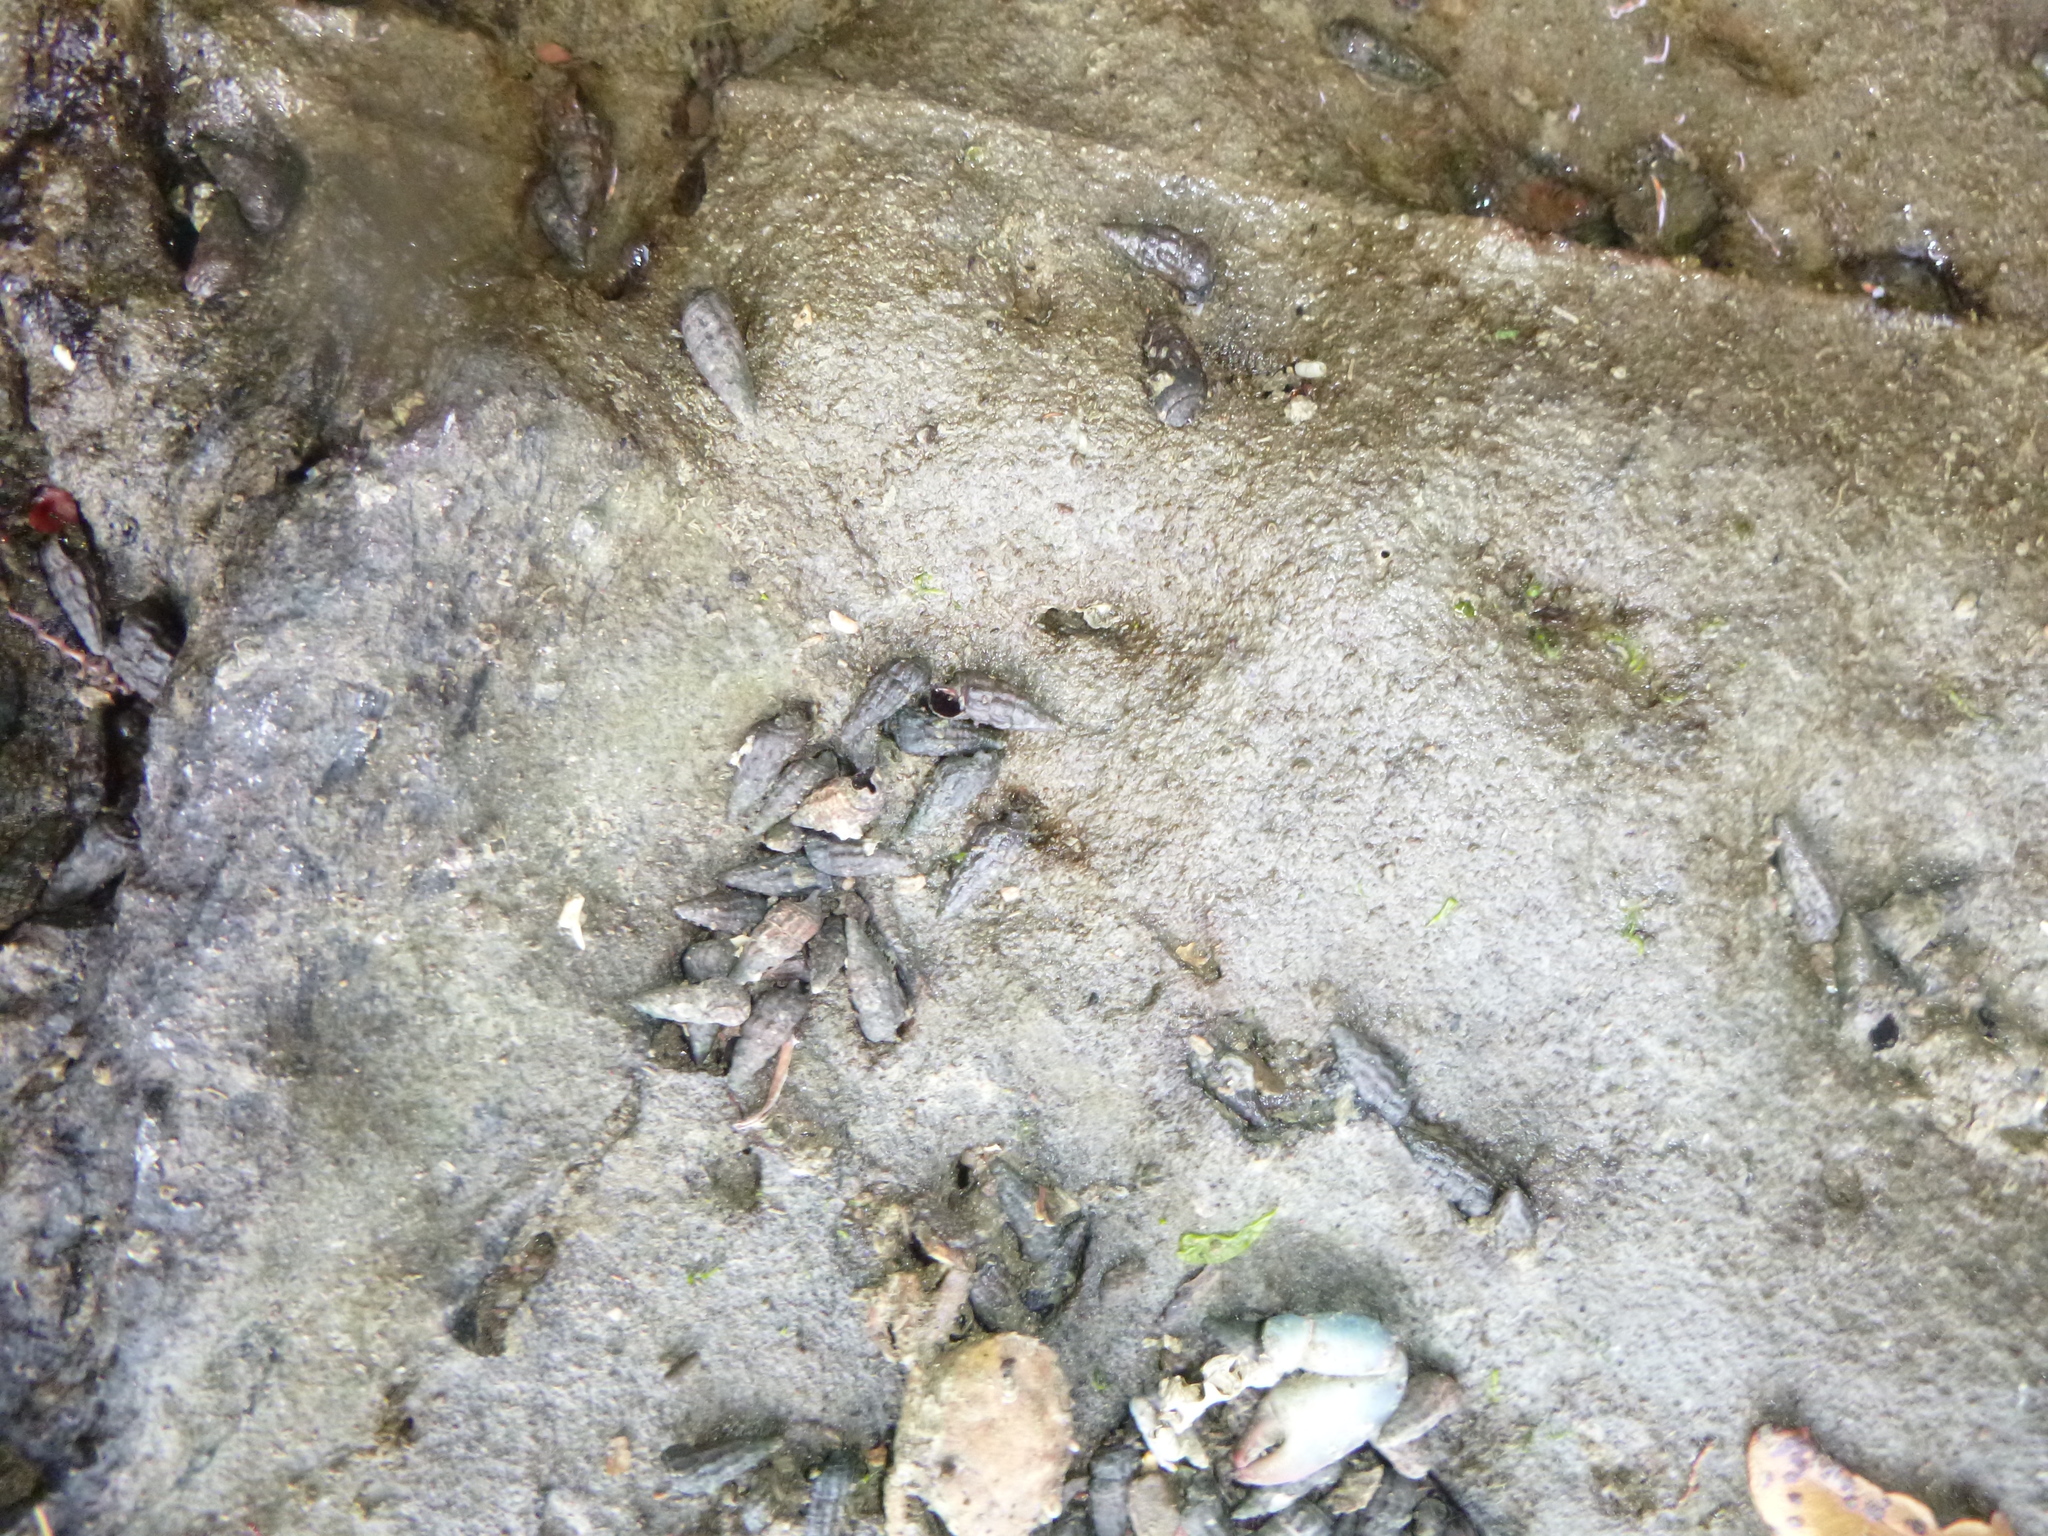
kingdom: Animalia
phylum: Mollusca
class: Gastropoda
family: Batillariidae
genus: Zeacumantus
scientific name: Zeacumantus subcarinatus
